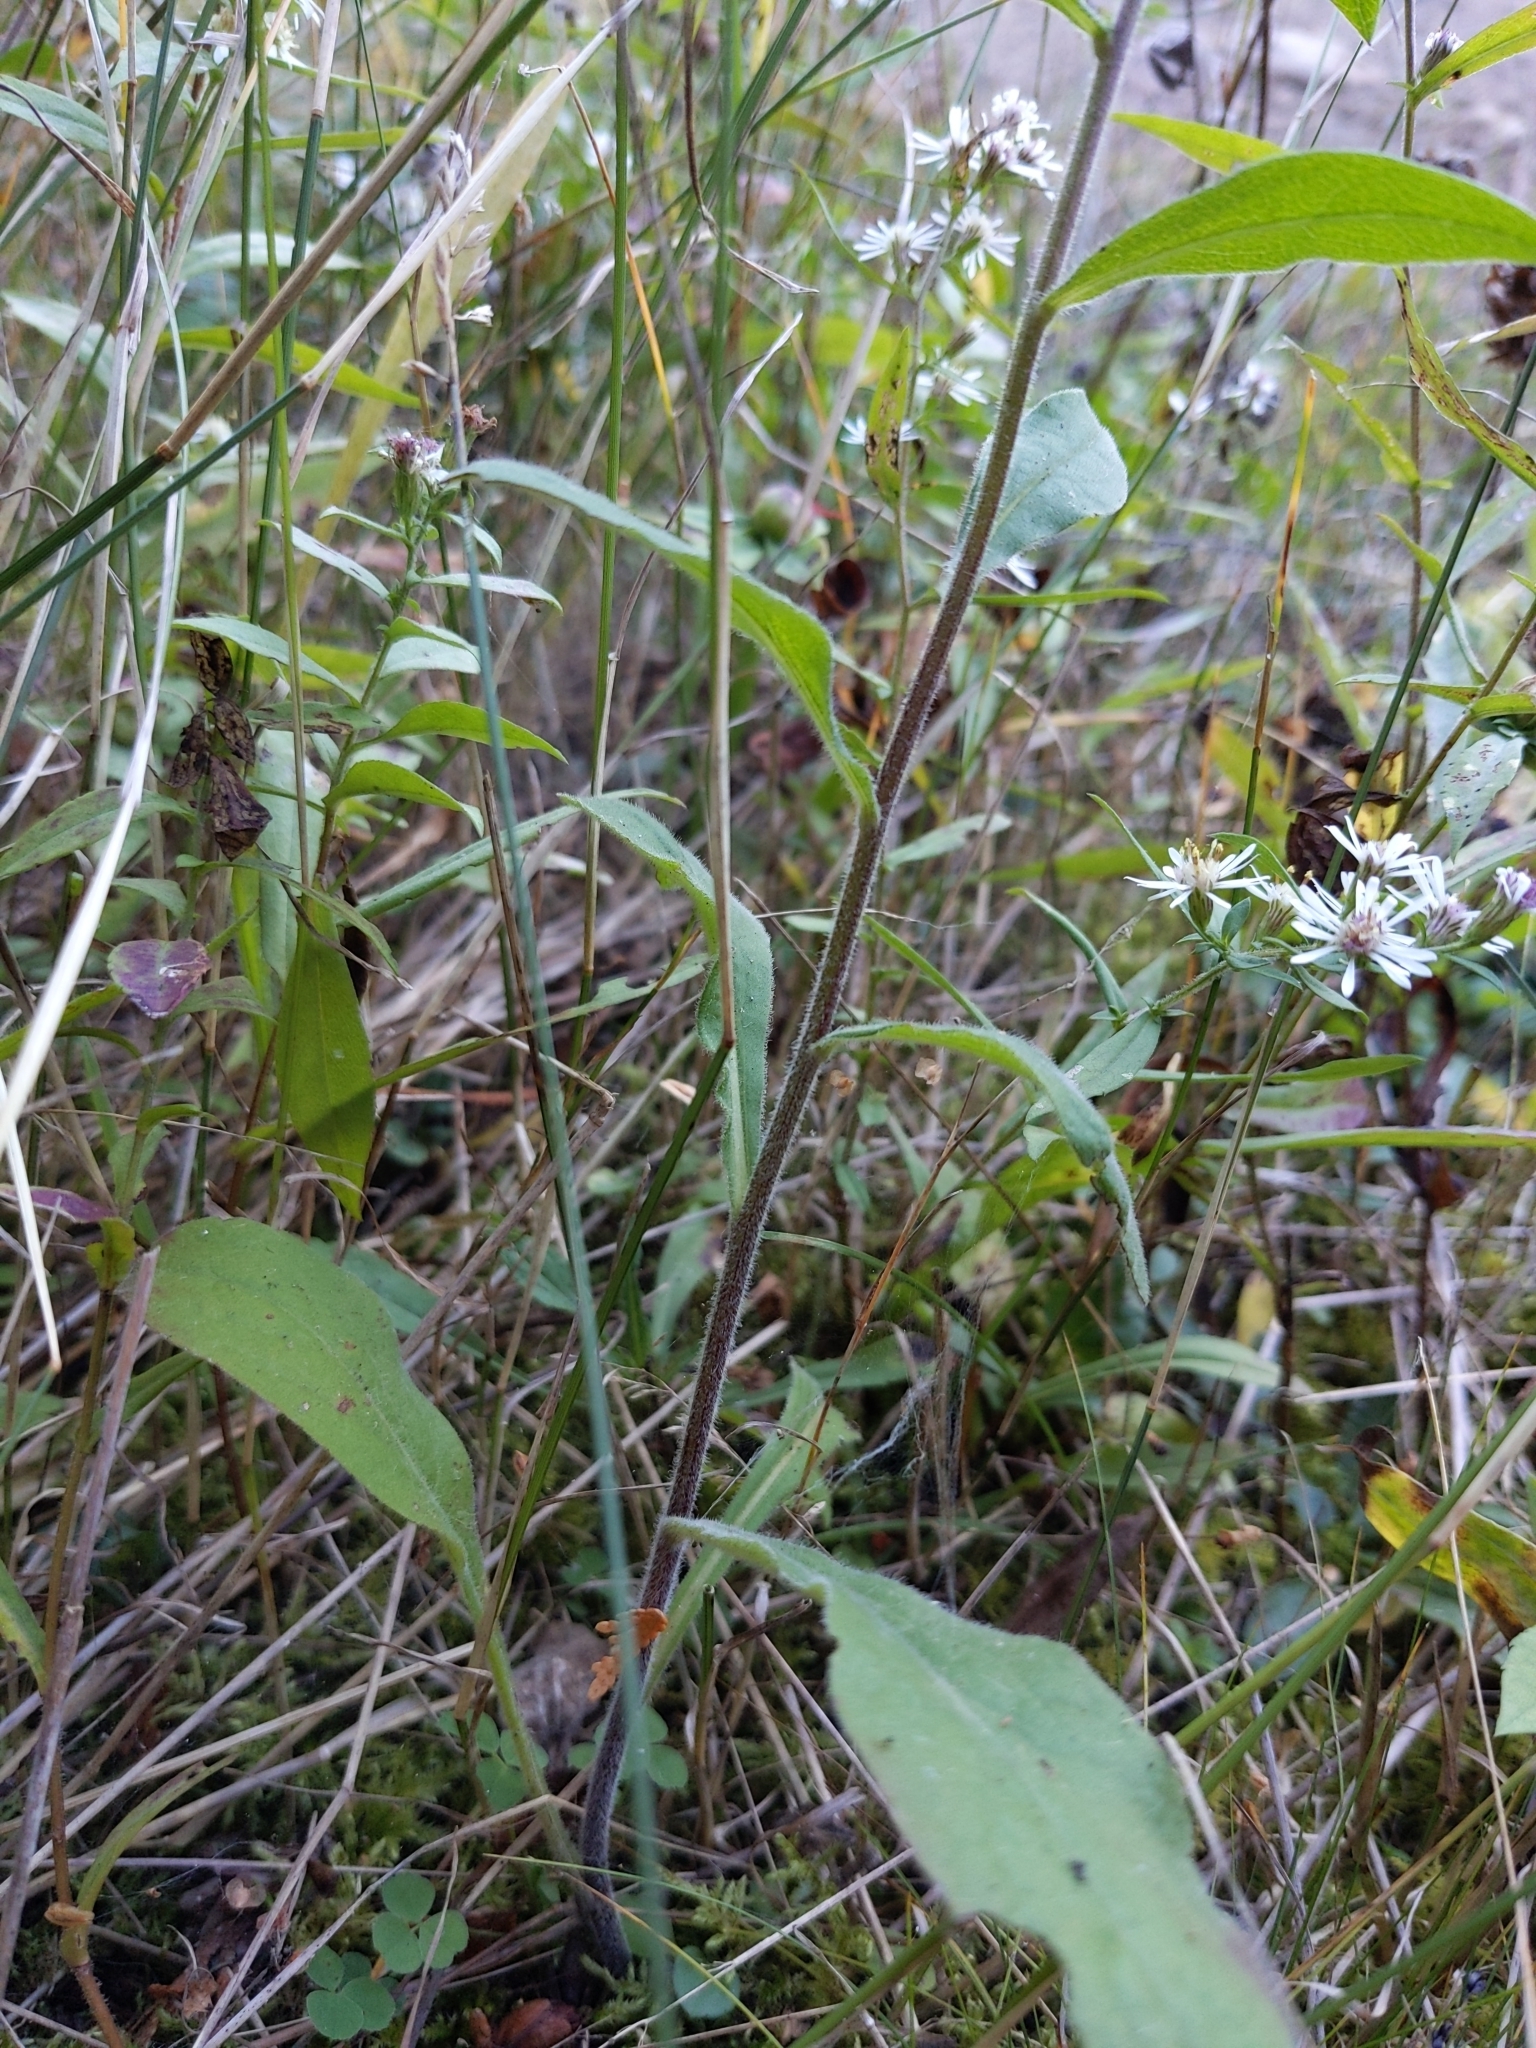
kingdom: Plantae
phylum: Tracheophyta
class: Magnoliopsida
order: Asterales
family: Asteraceae
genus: Solidago
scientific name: Solidago hispida
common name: Hairy goldenrod
